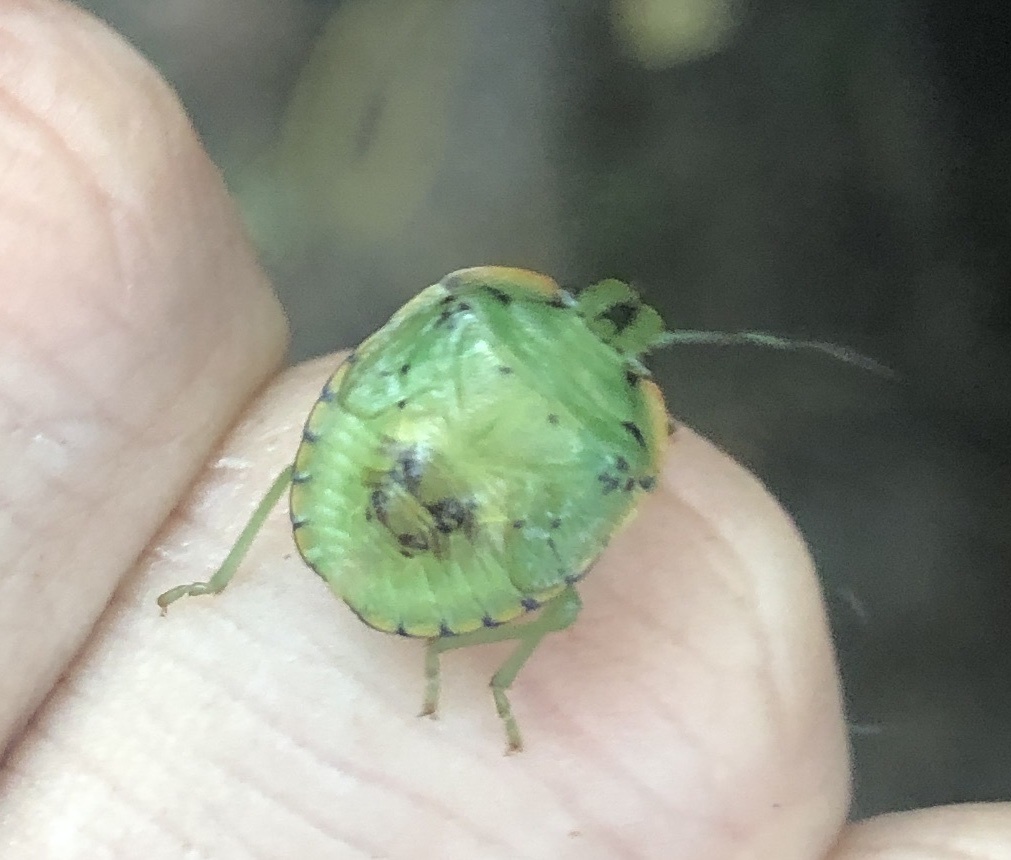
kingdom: Animalia
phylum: Arthropoda
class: Insecta
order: Hemiptera
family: Pentatomidae
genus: Chinavia
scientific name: Chinavia hilaris
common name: Green stink bug
